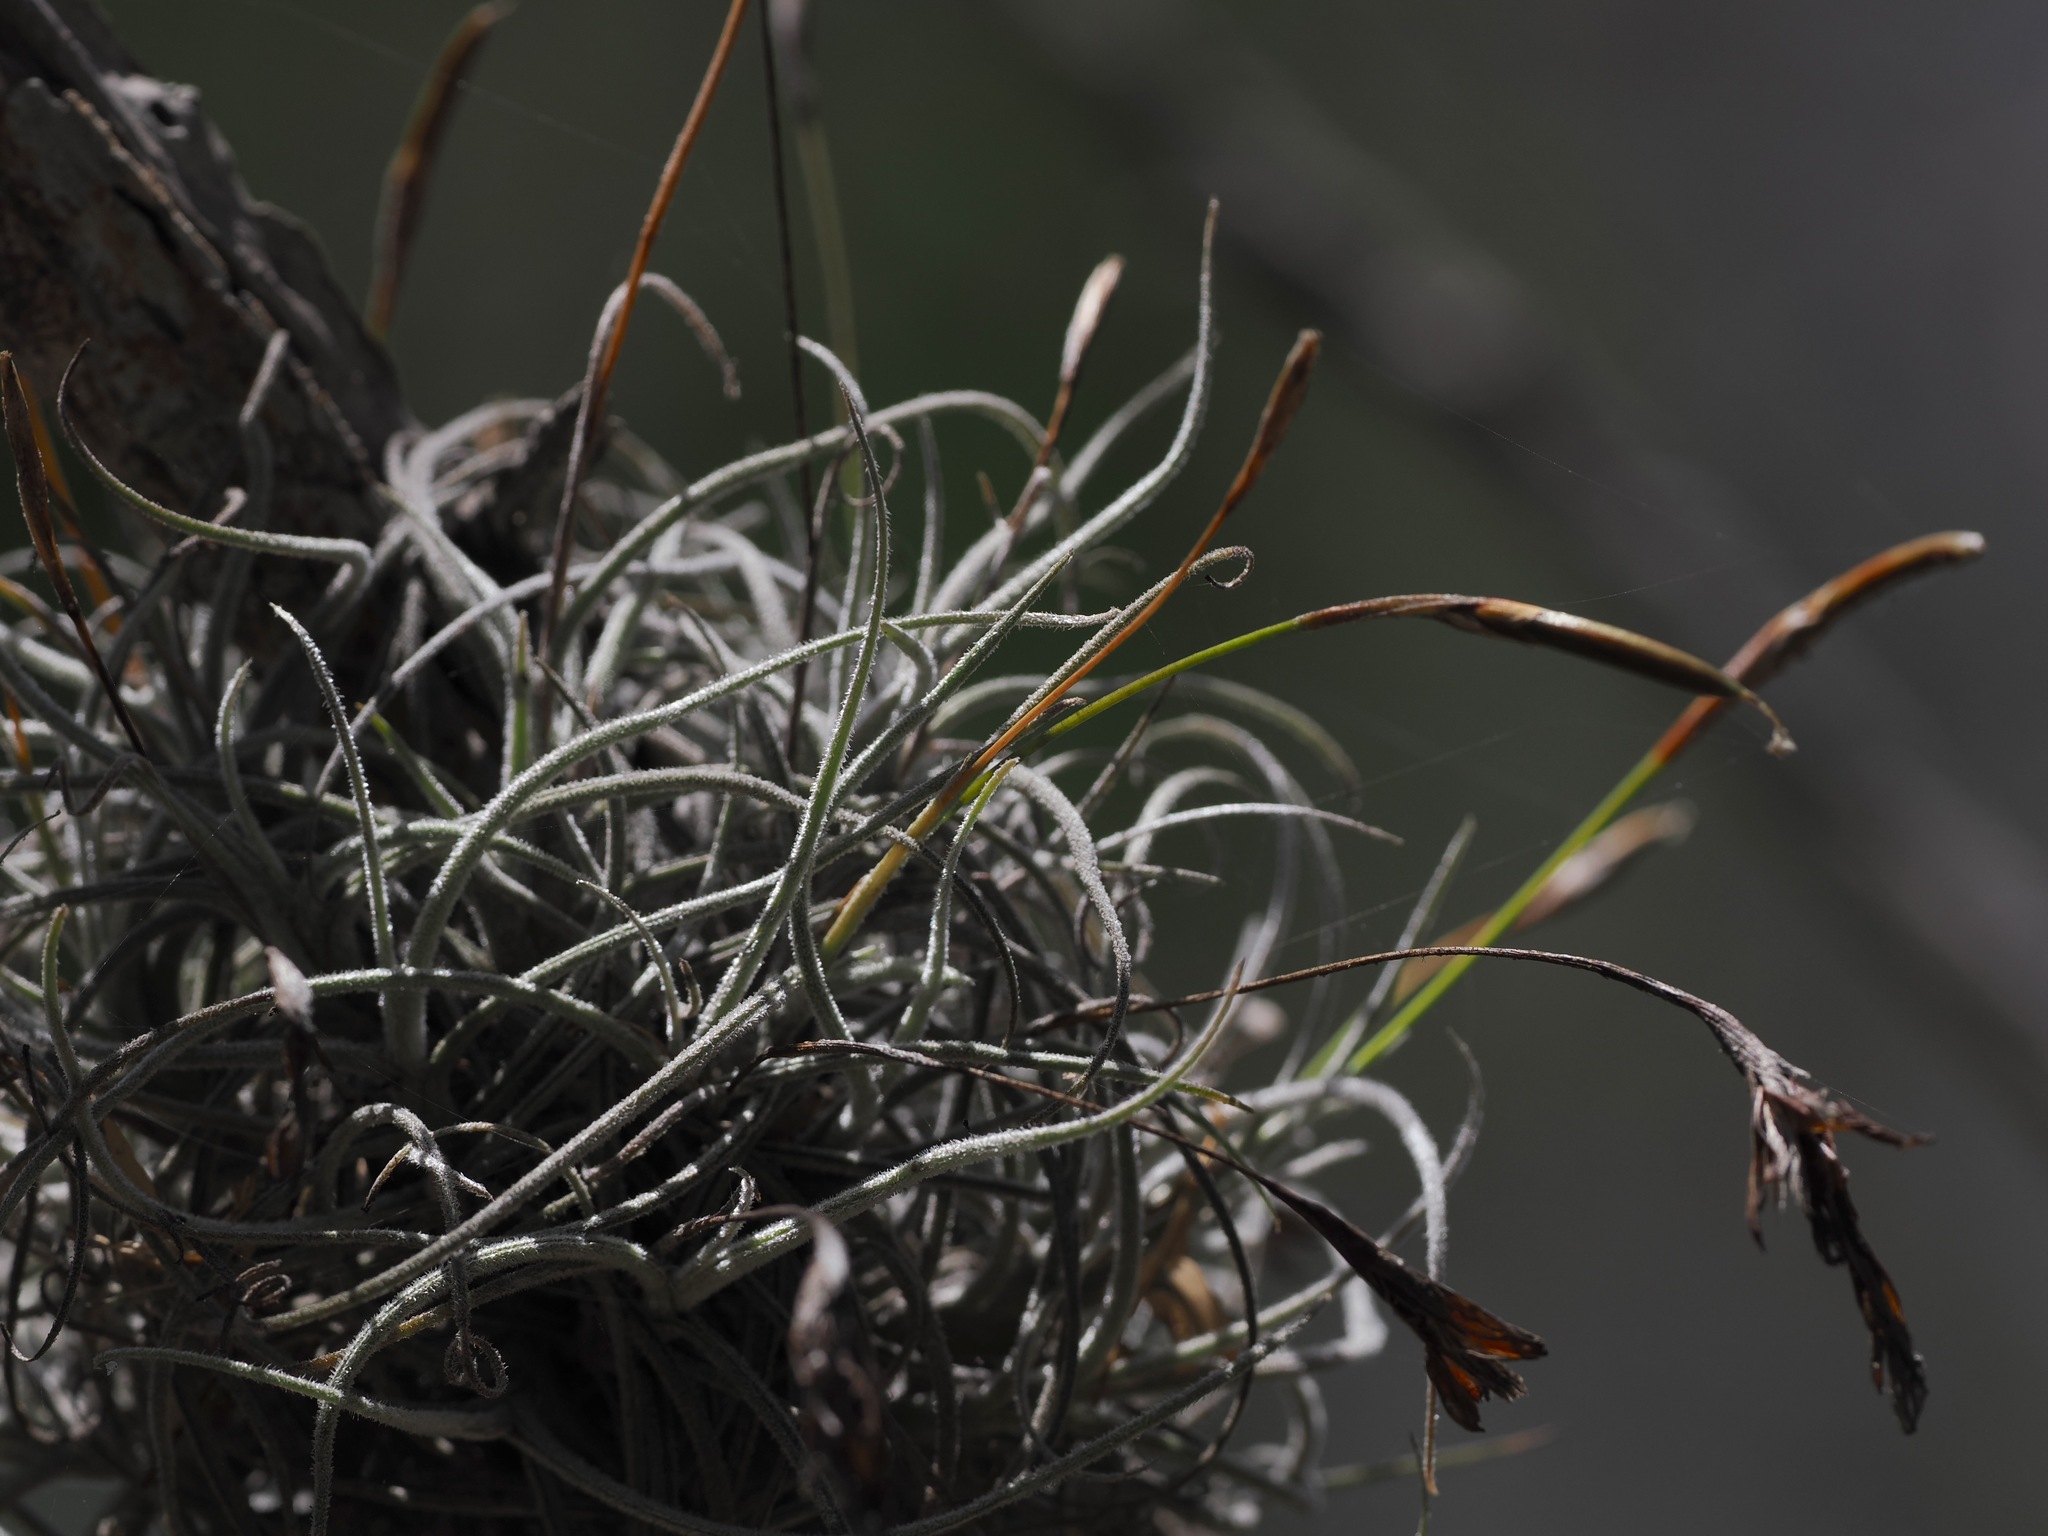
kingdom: Plantae
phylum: Tracheophyta
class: Liliopsida
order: Poales
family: Bromeliaceae
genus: Tillandsia
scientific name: Tillandsia recurvata
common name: Small ballmoss
